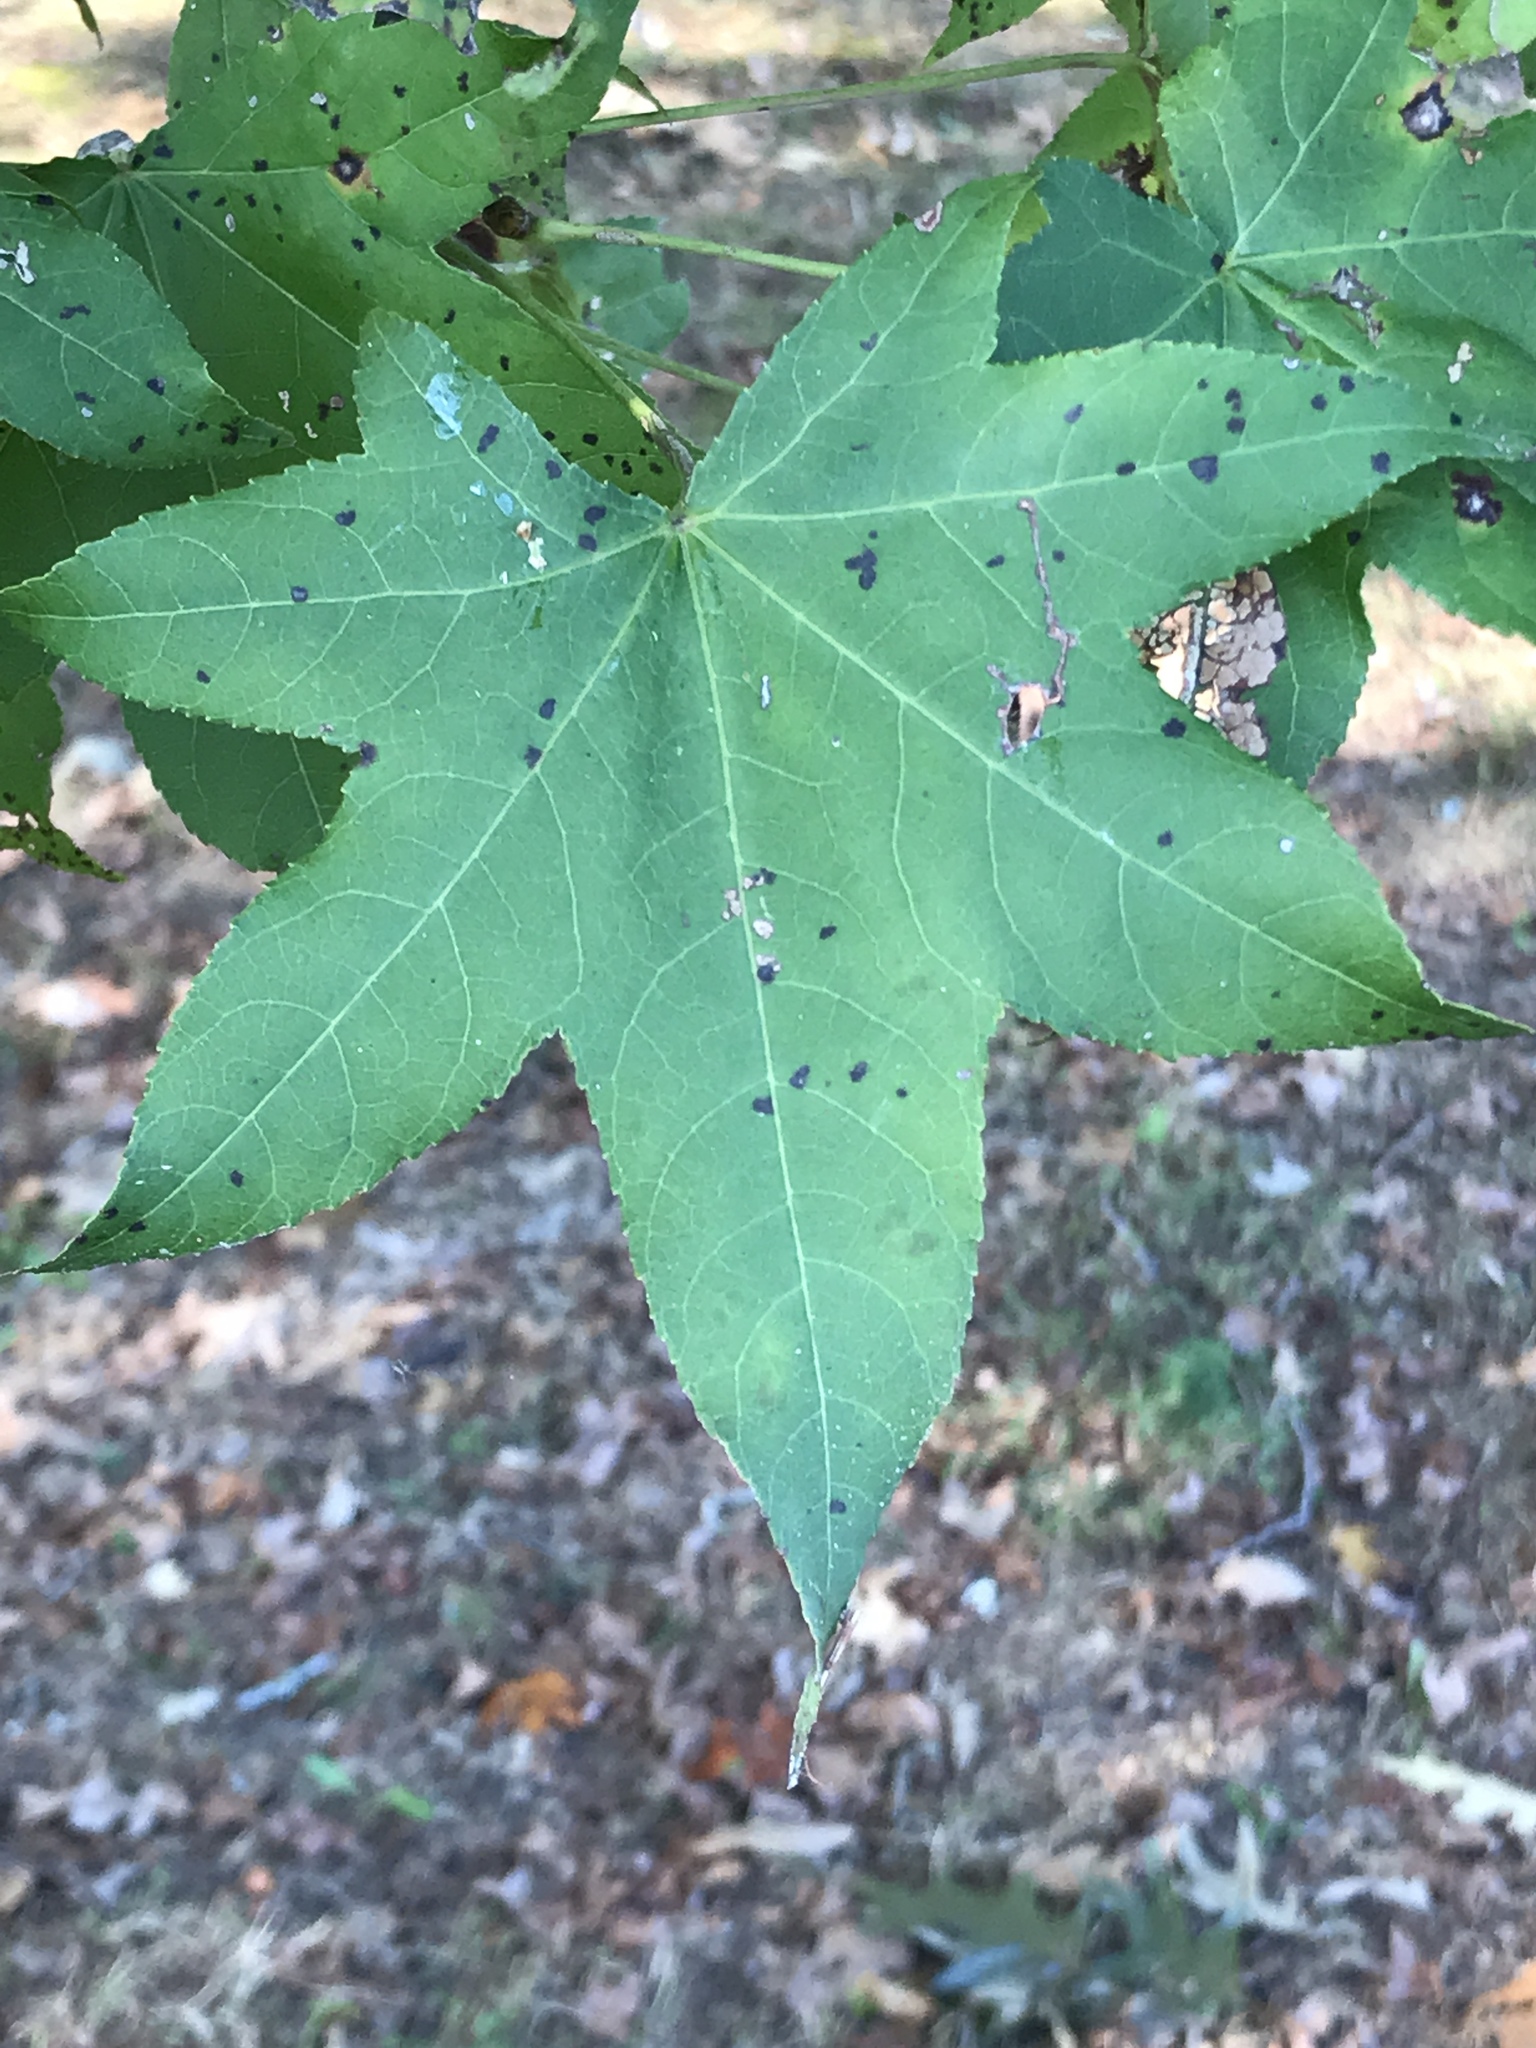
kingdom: Plantae
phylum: Tracheophyta
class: Magnoliopsida
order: Saxifragales
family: Altingiaceae
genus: Liquidambar
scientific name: Liquidambar styraciflua
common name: Sweet gum
